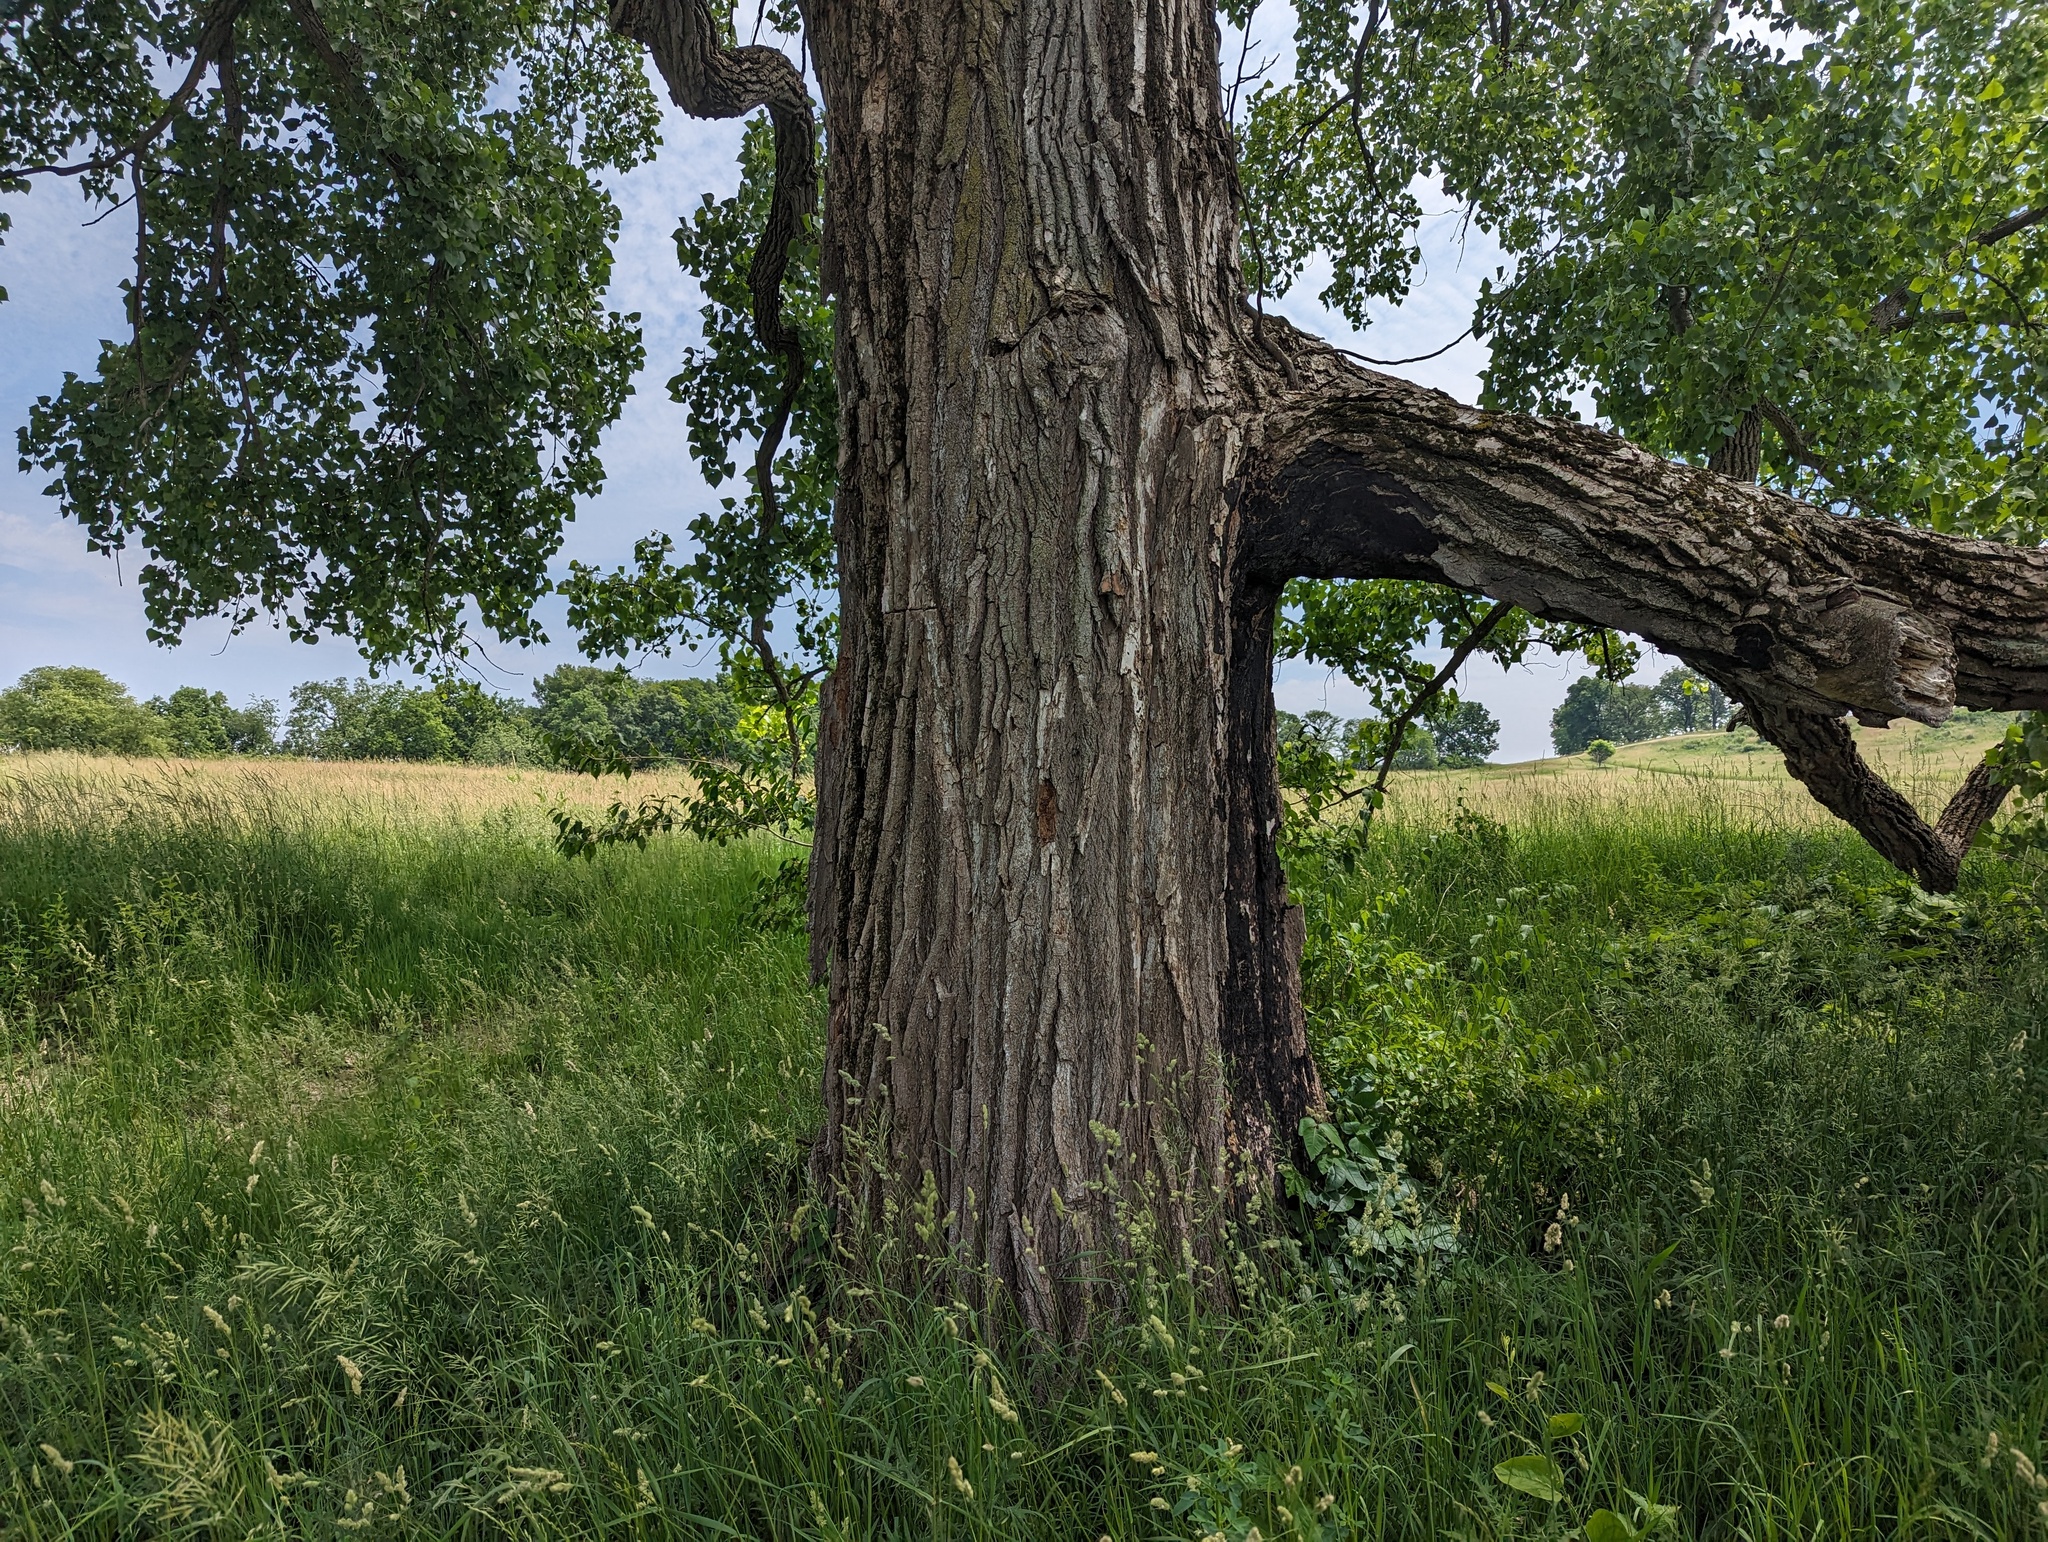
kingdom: Plantae
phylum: Tracheophyta
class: Magnoliopsida
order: Malpighiales
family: Salicaceae
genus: Populus
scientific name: Populus deltoides
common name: Eastern cottonwood
